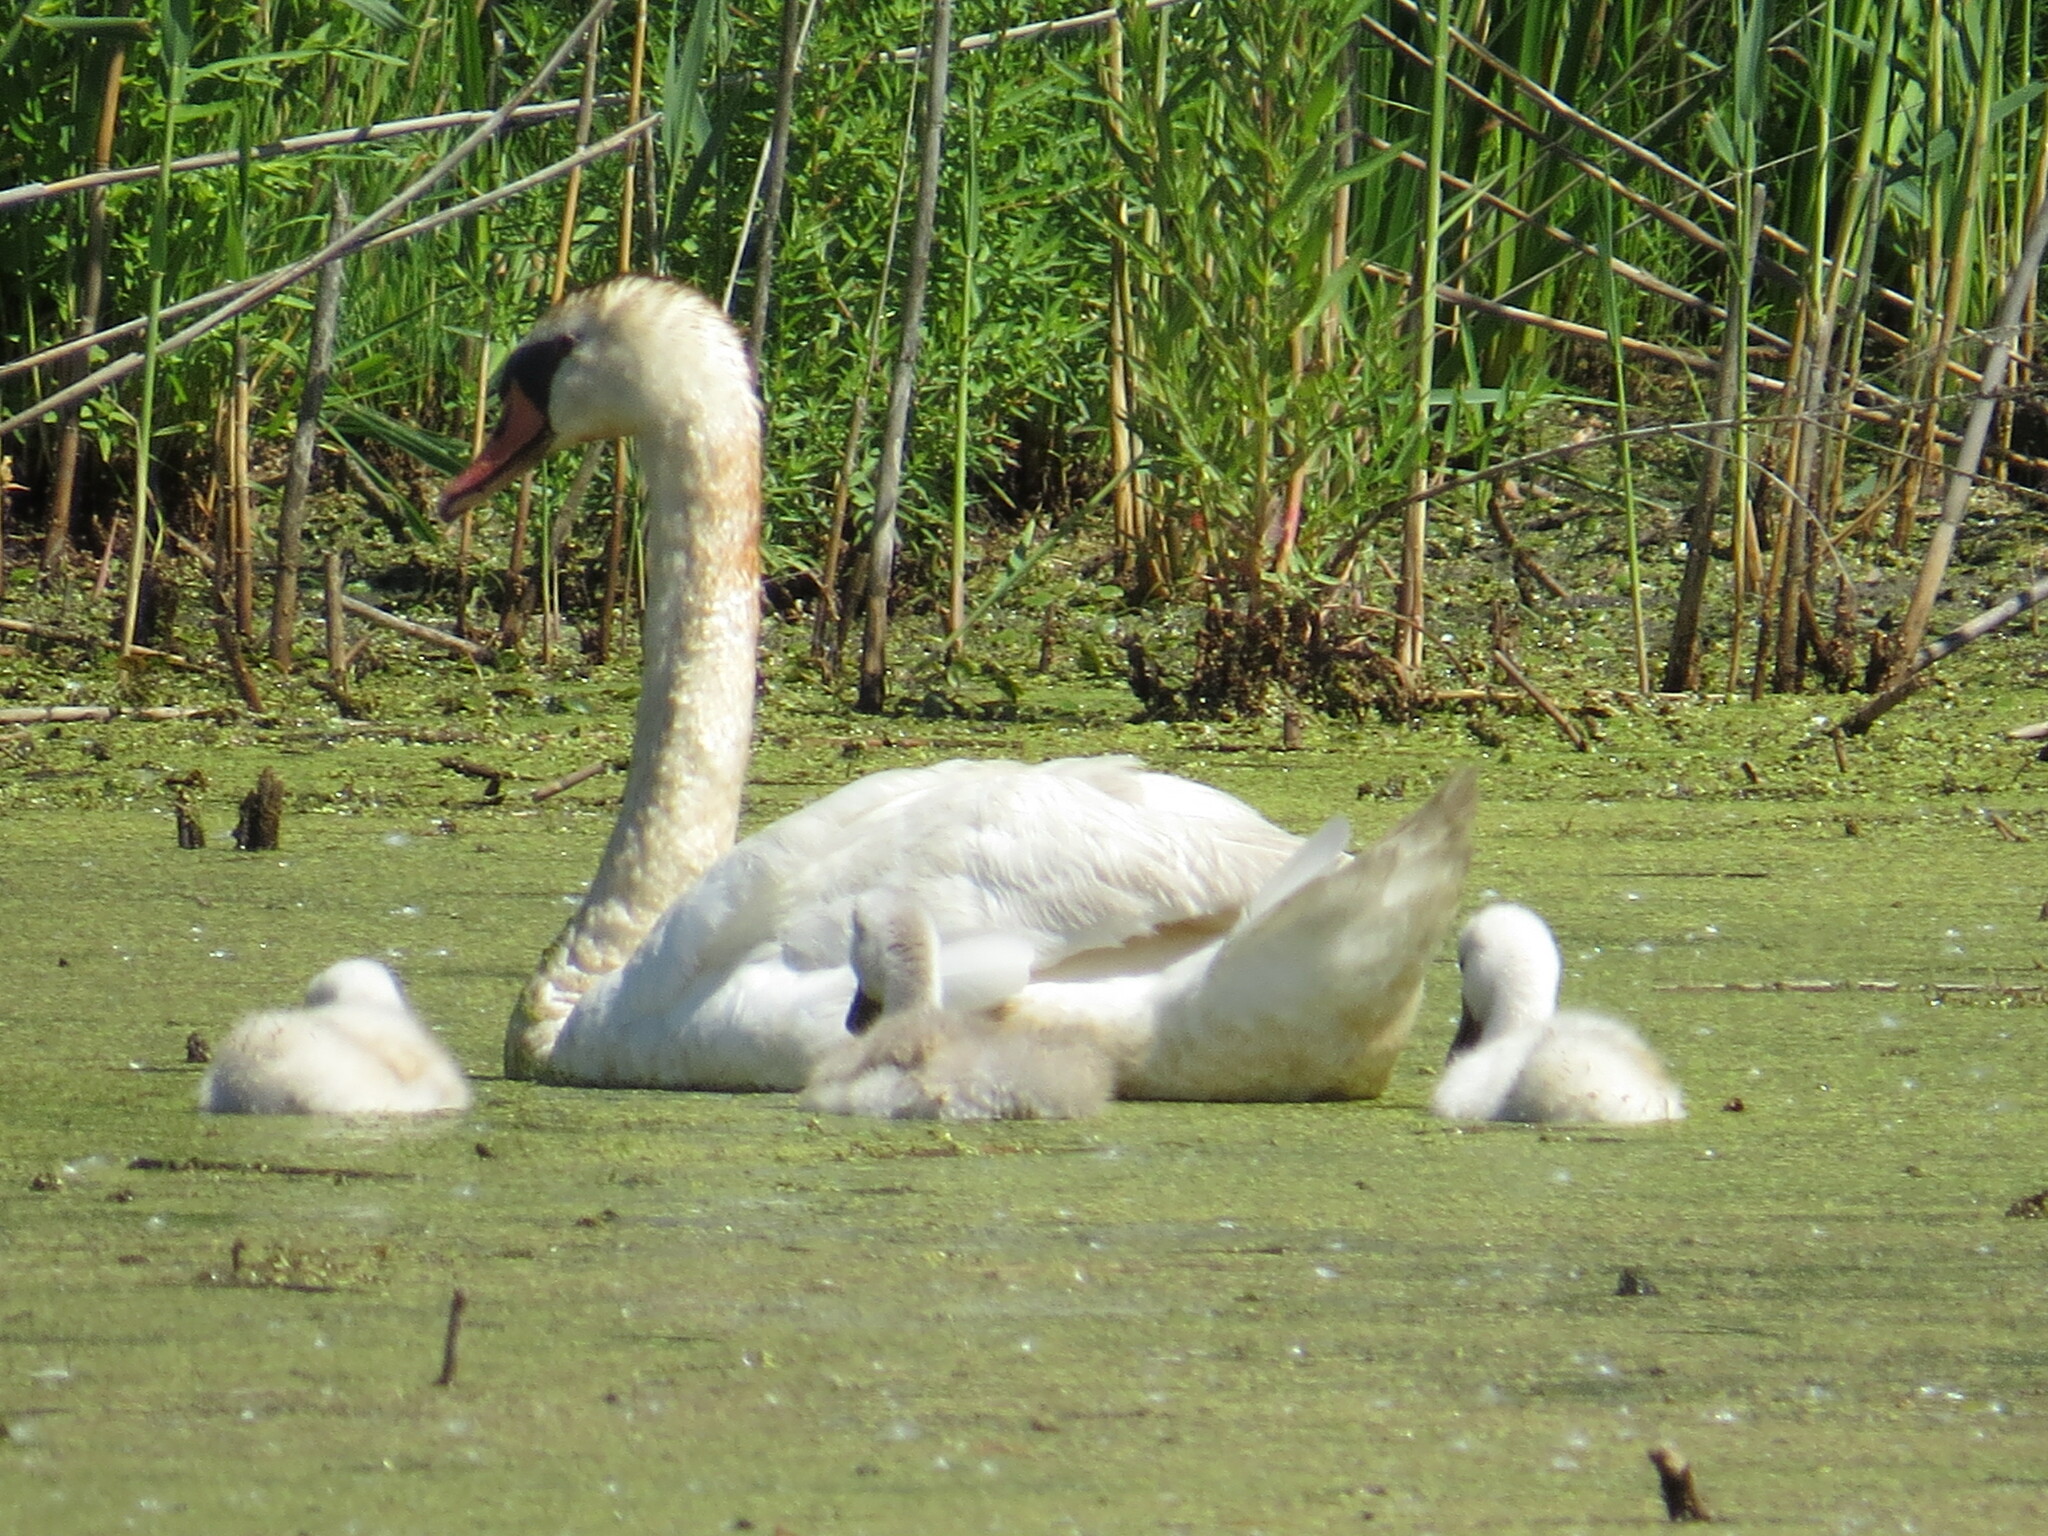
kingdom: Animalia
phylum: Chordata
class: Aves
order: Anseriformes
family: Anatidae
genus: Cygnus
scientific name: Cygnus olor
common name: Mute swan
